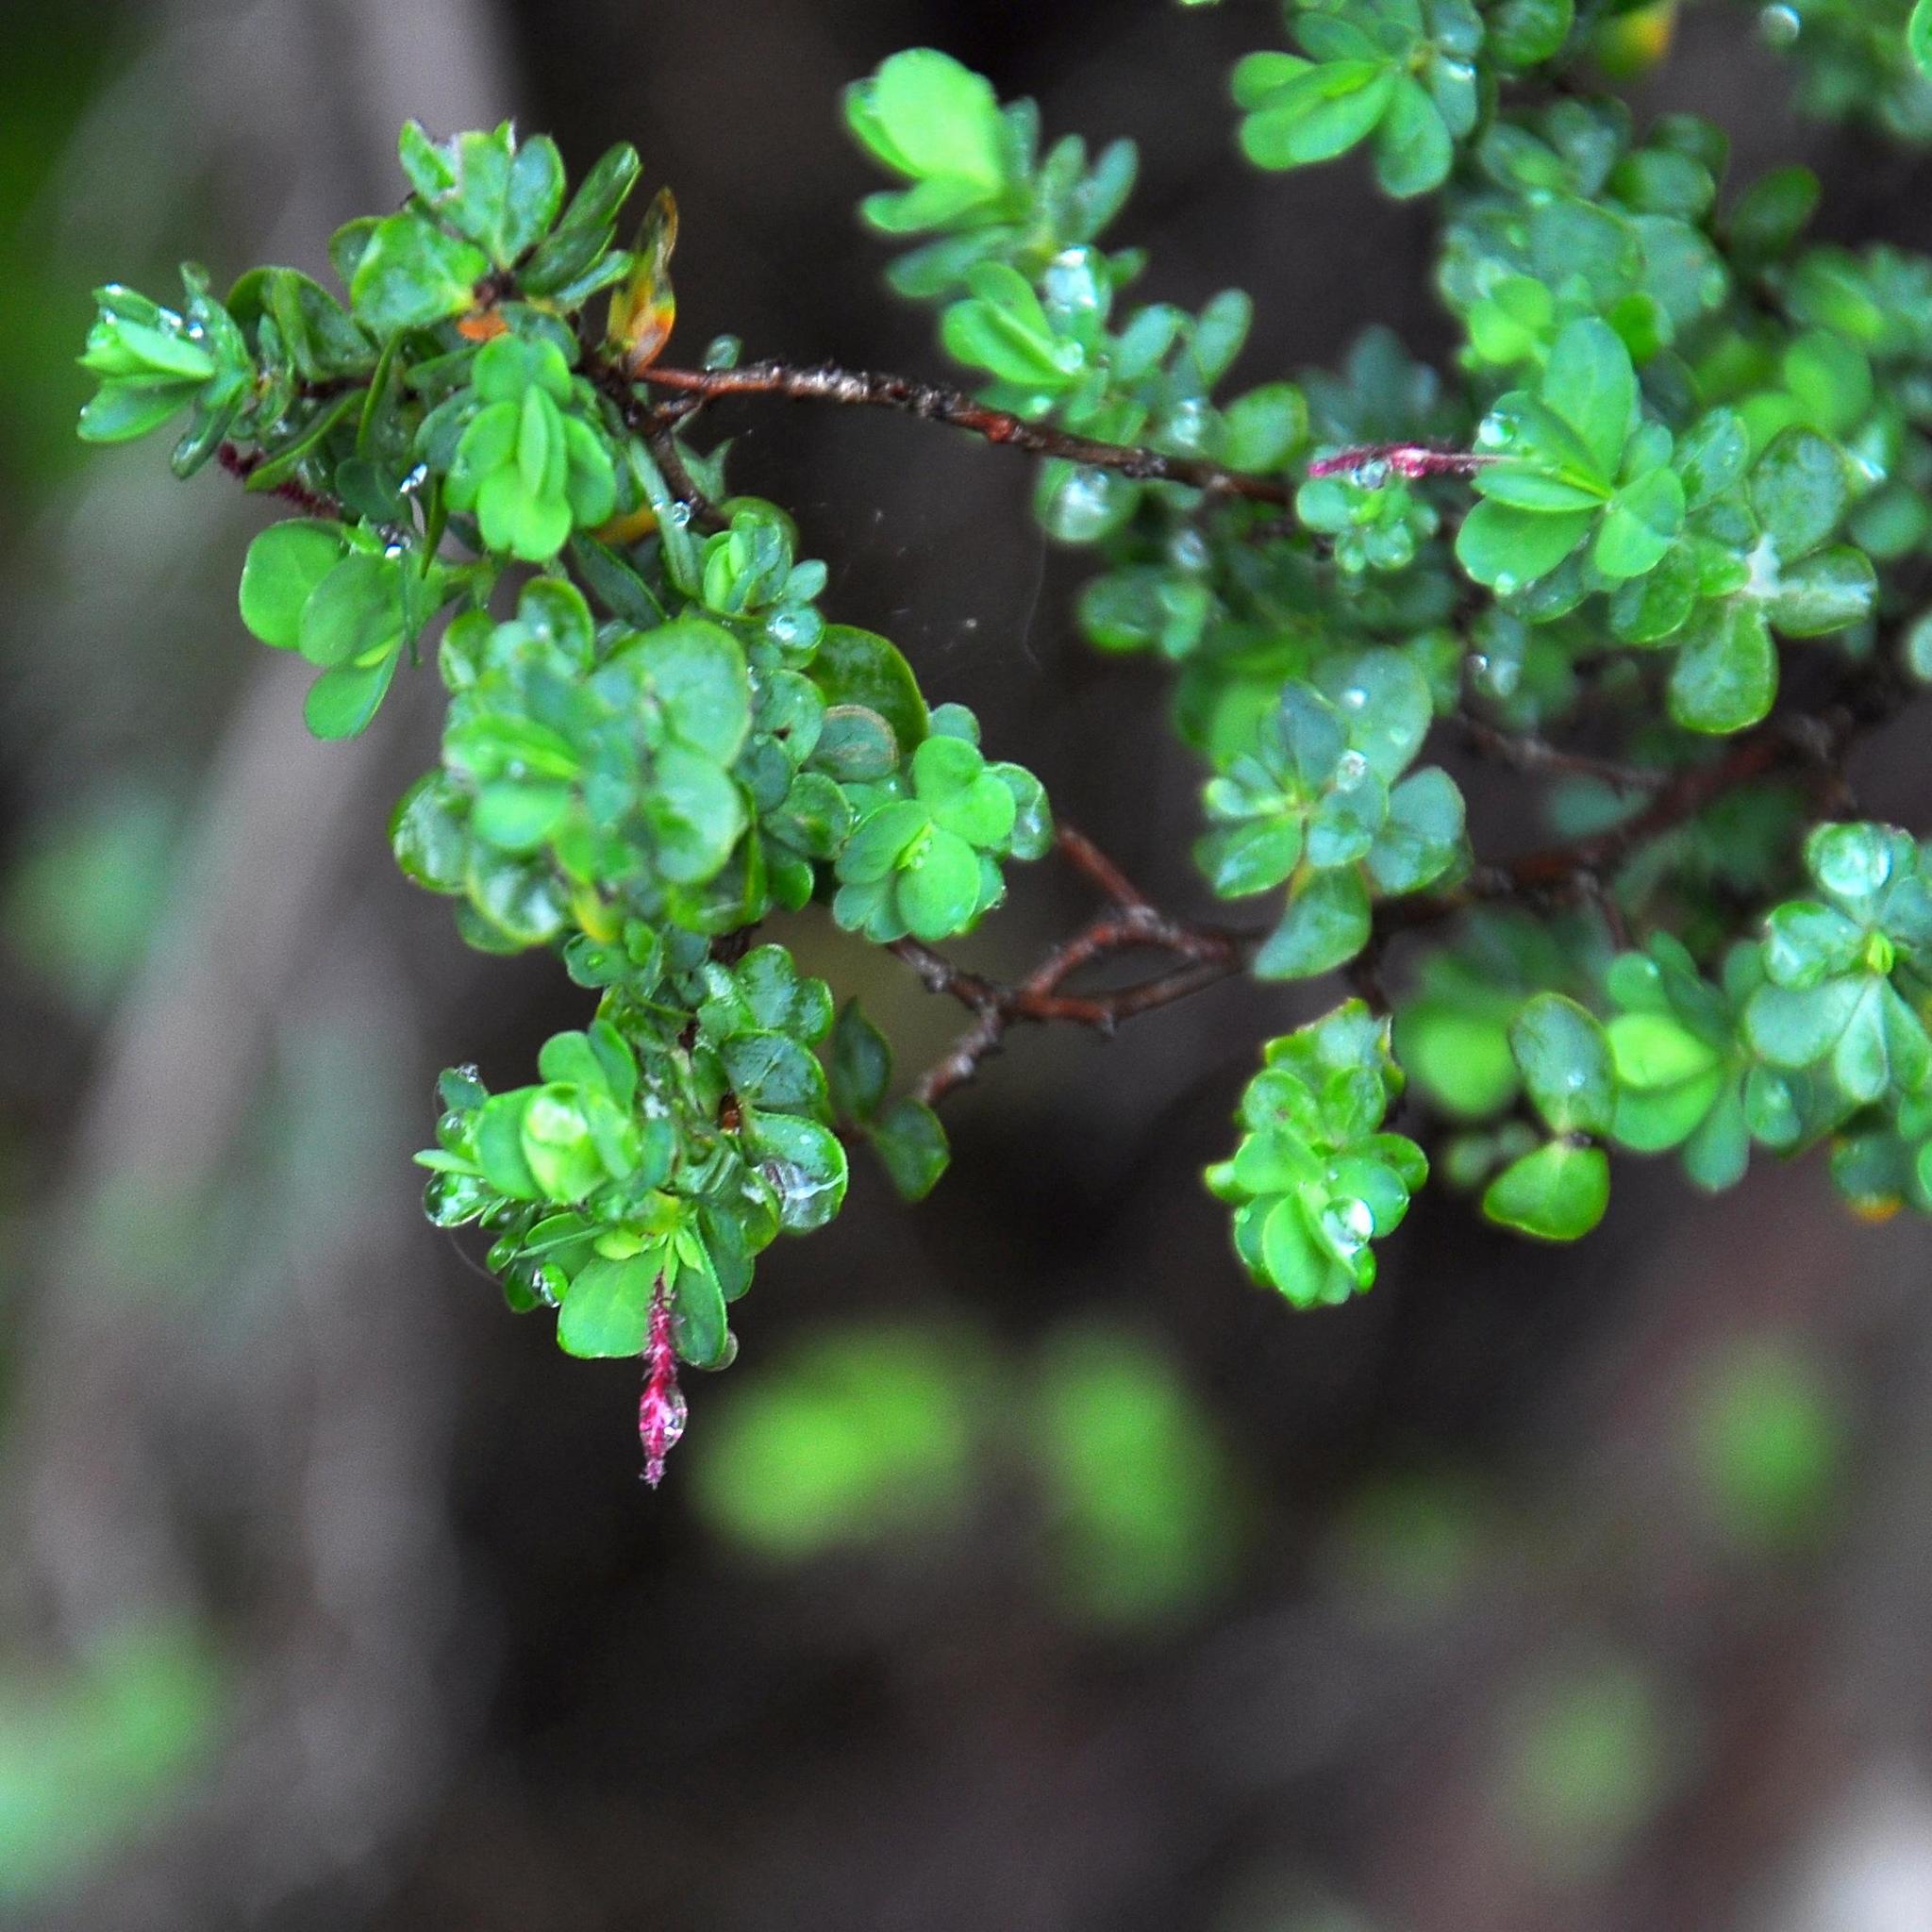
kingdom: Plantae
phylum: Tracheophyta
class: Magnoliopsida
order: Rosales
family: Rosaceae
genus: Cliffortia
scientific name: Cliffortia obcordata
